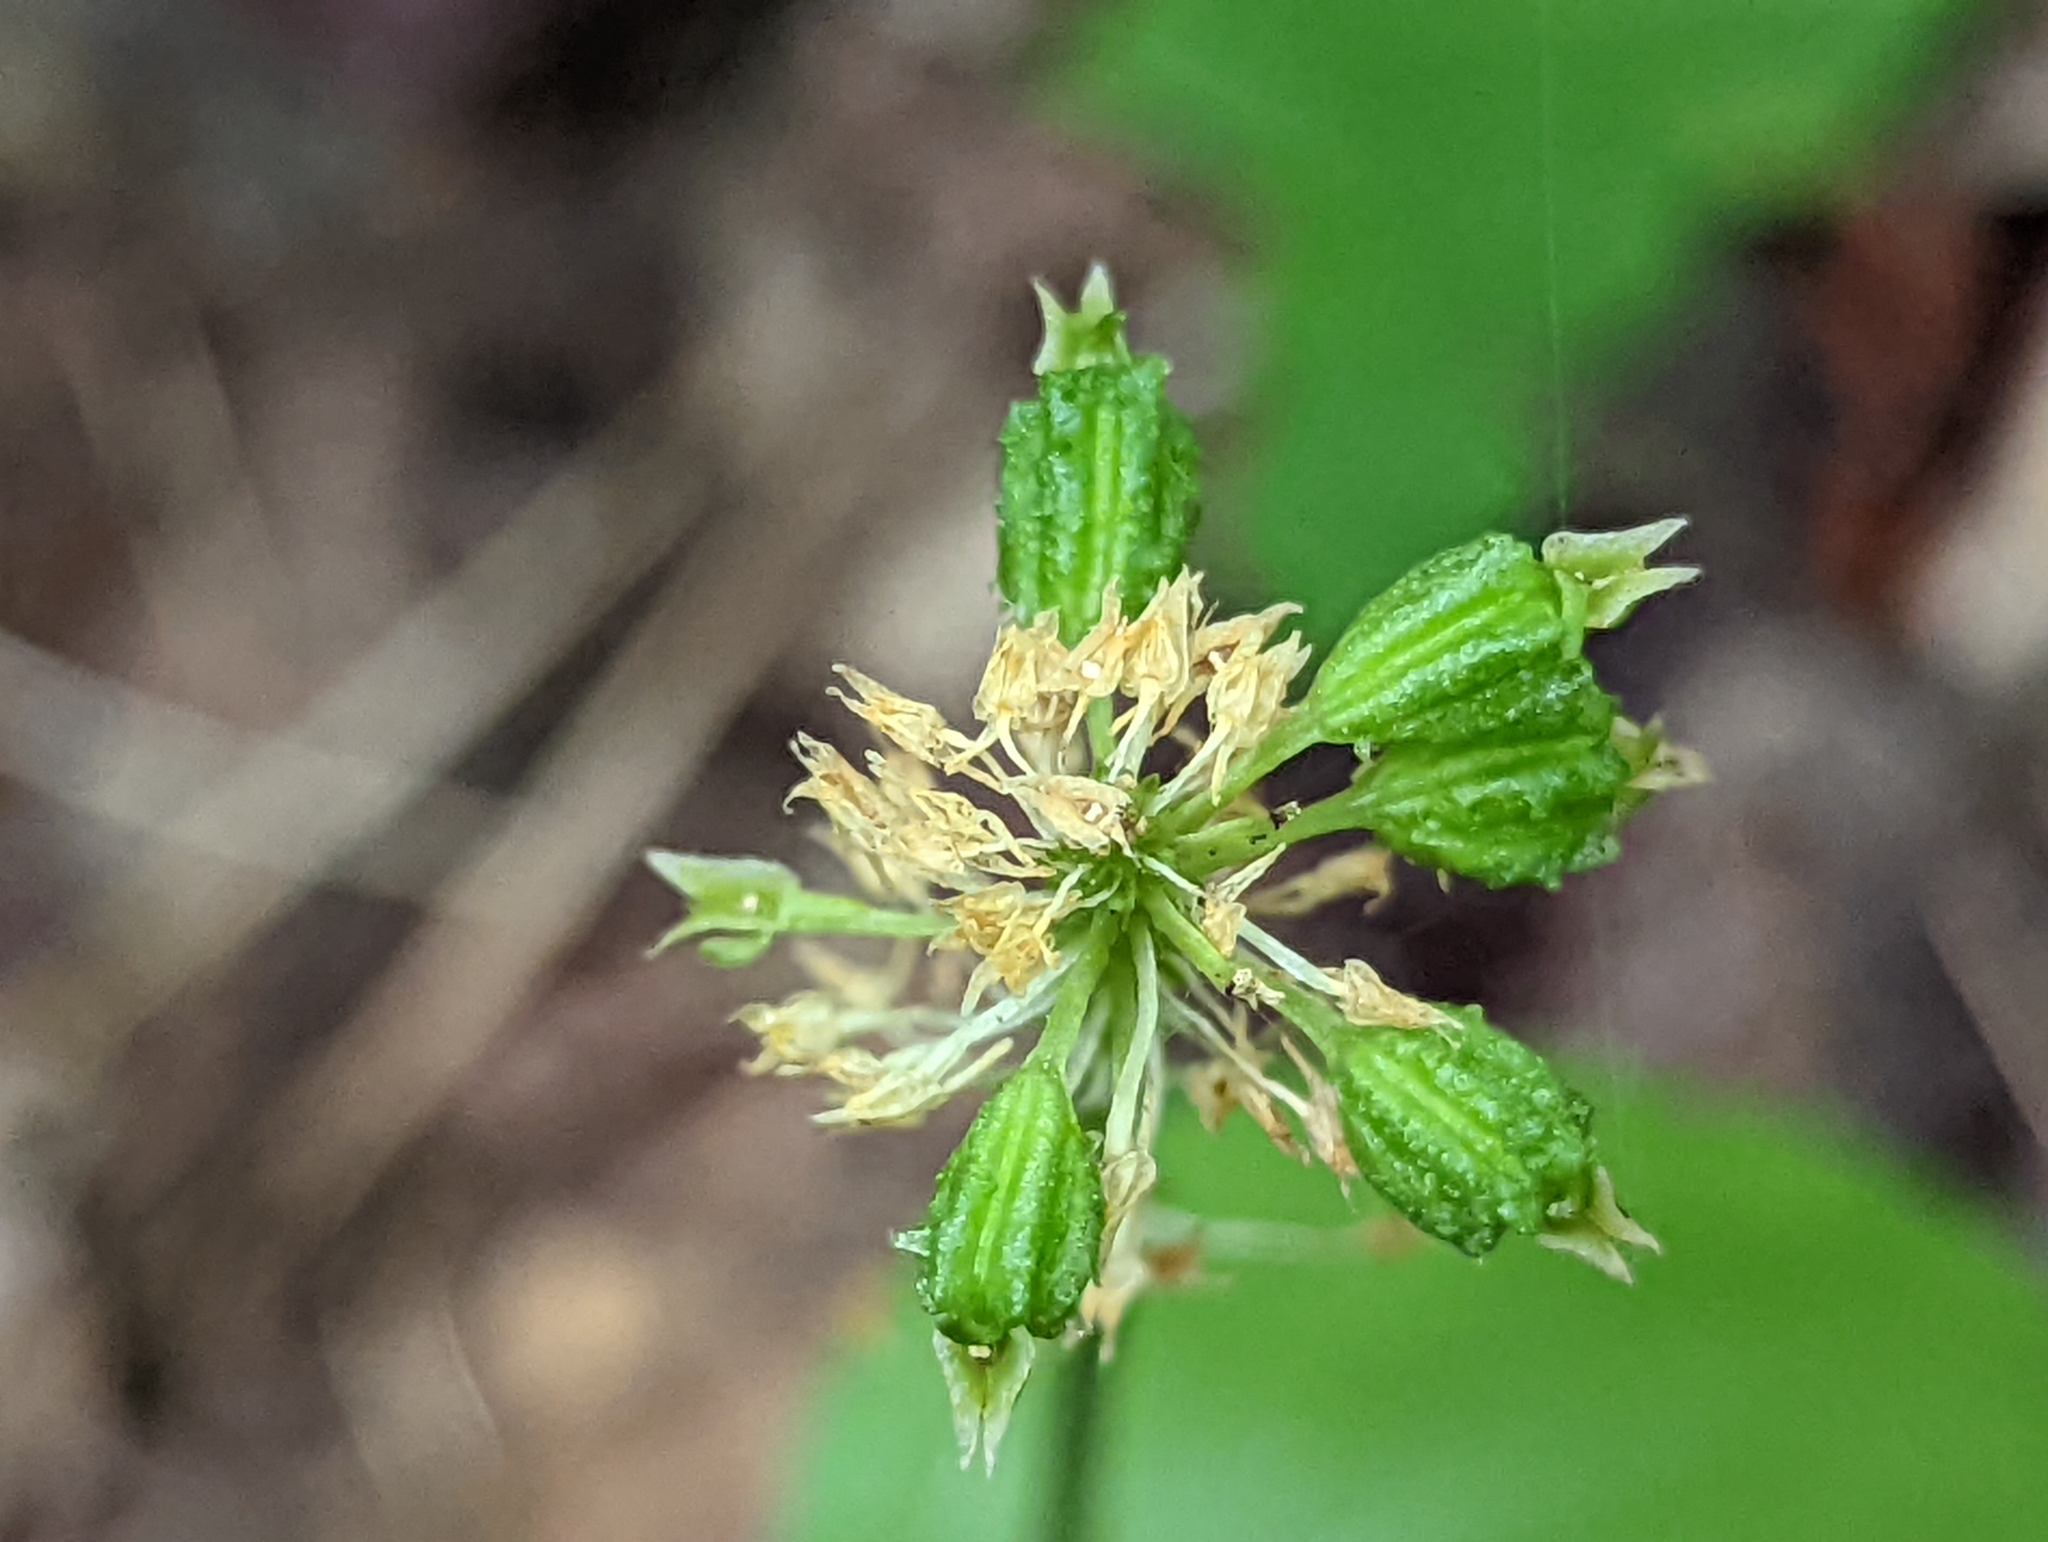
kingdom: Plantae
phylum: Tracheophyta
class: Liliopsida
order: Asparagales
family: Orchidaceae
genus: Malaxis
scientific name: Malaxis unifolia
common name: Green adder's-mouth
